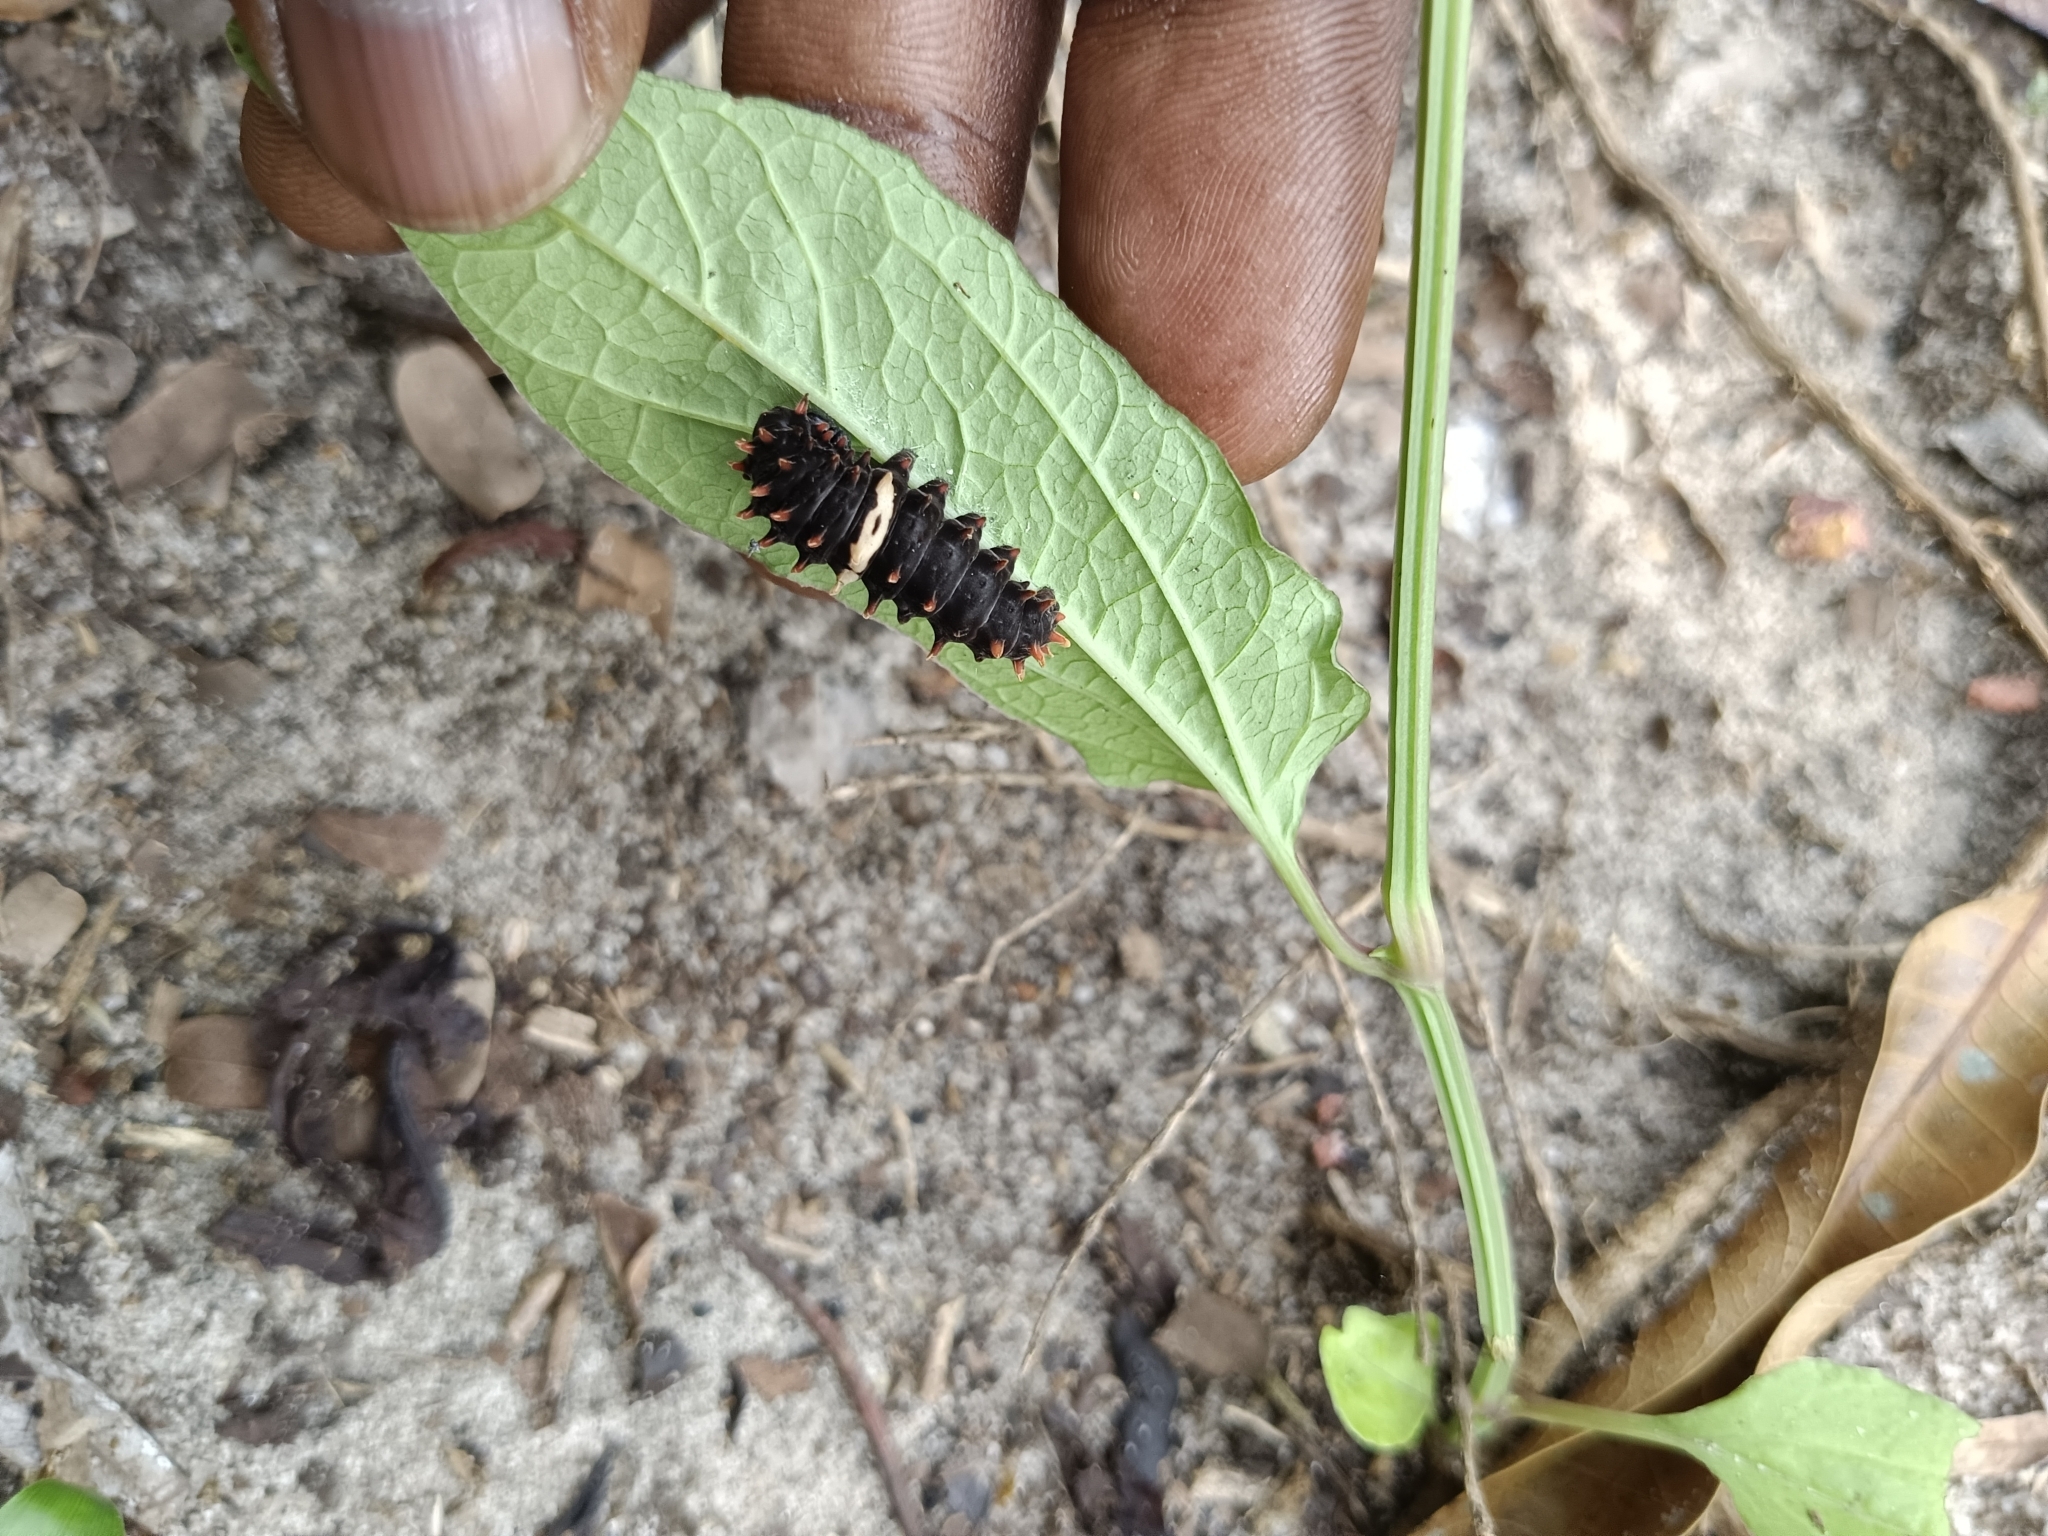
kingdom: Animalia
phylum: Arthropoda
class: Insecta
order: Lepidoptera
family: Papilionidae
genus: Pachliopta
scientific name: Pachliopta aristolochiae
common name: Common rose
